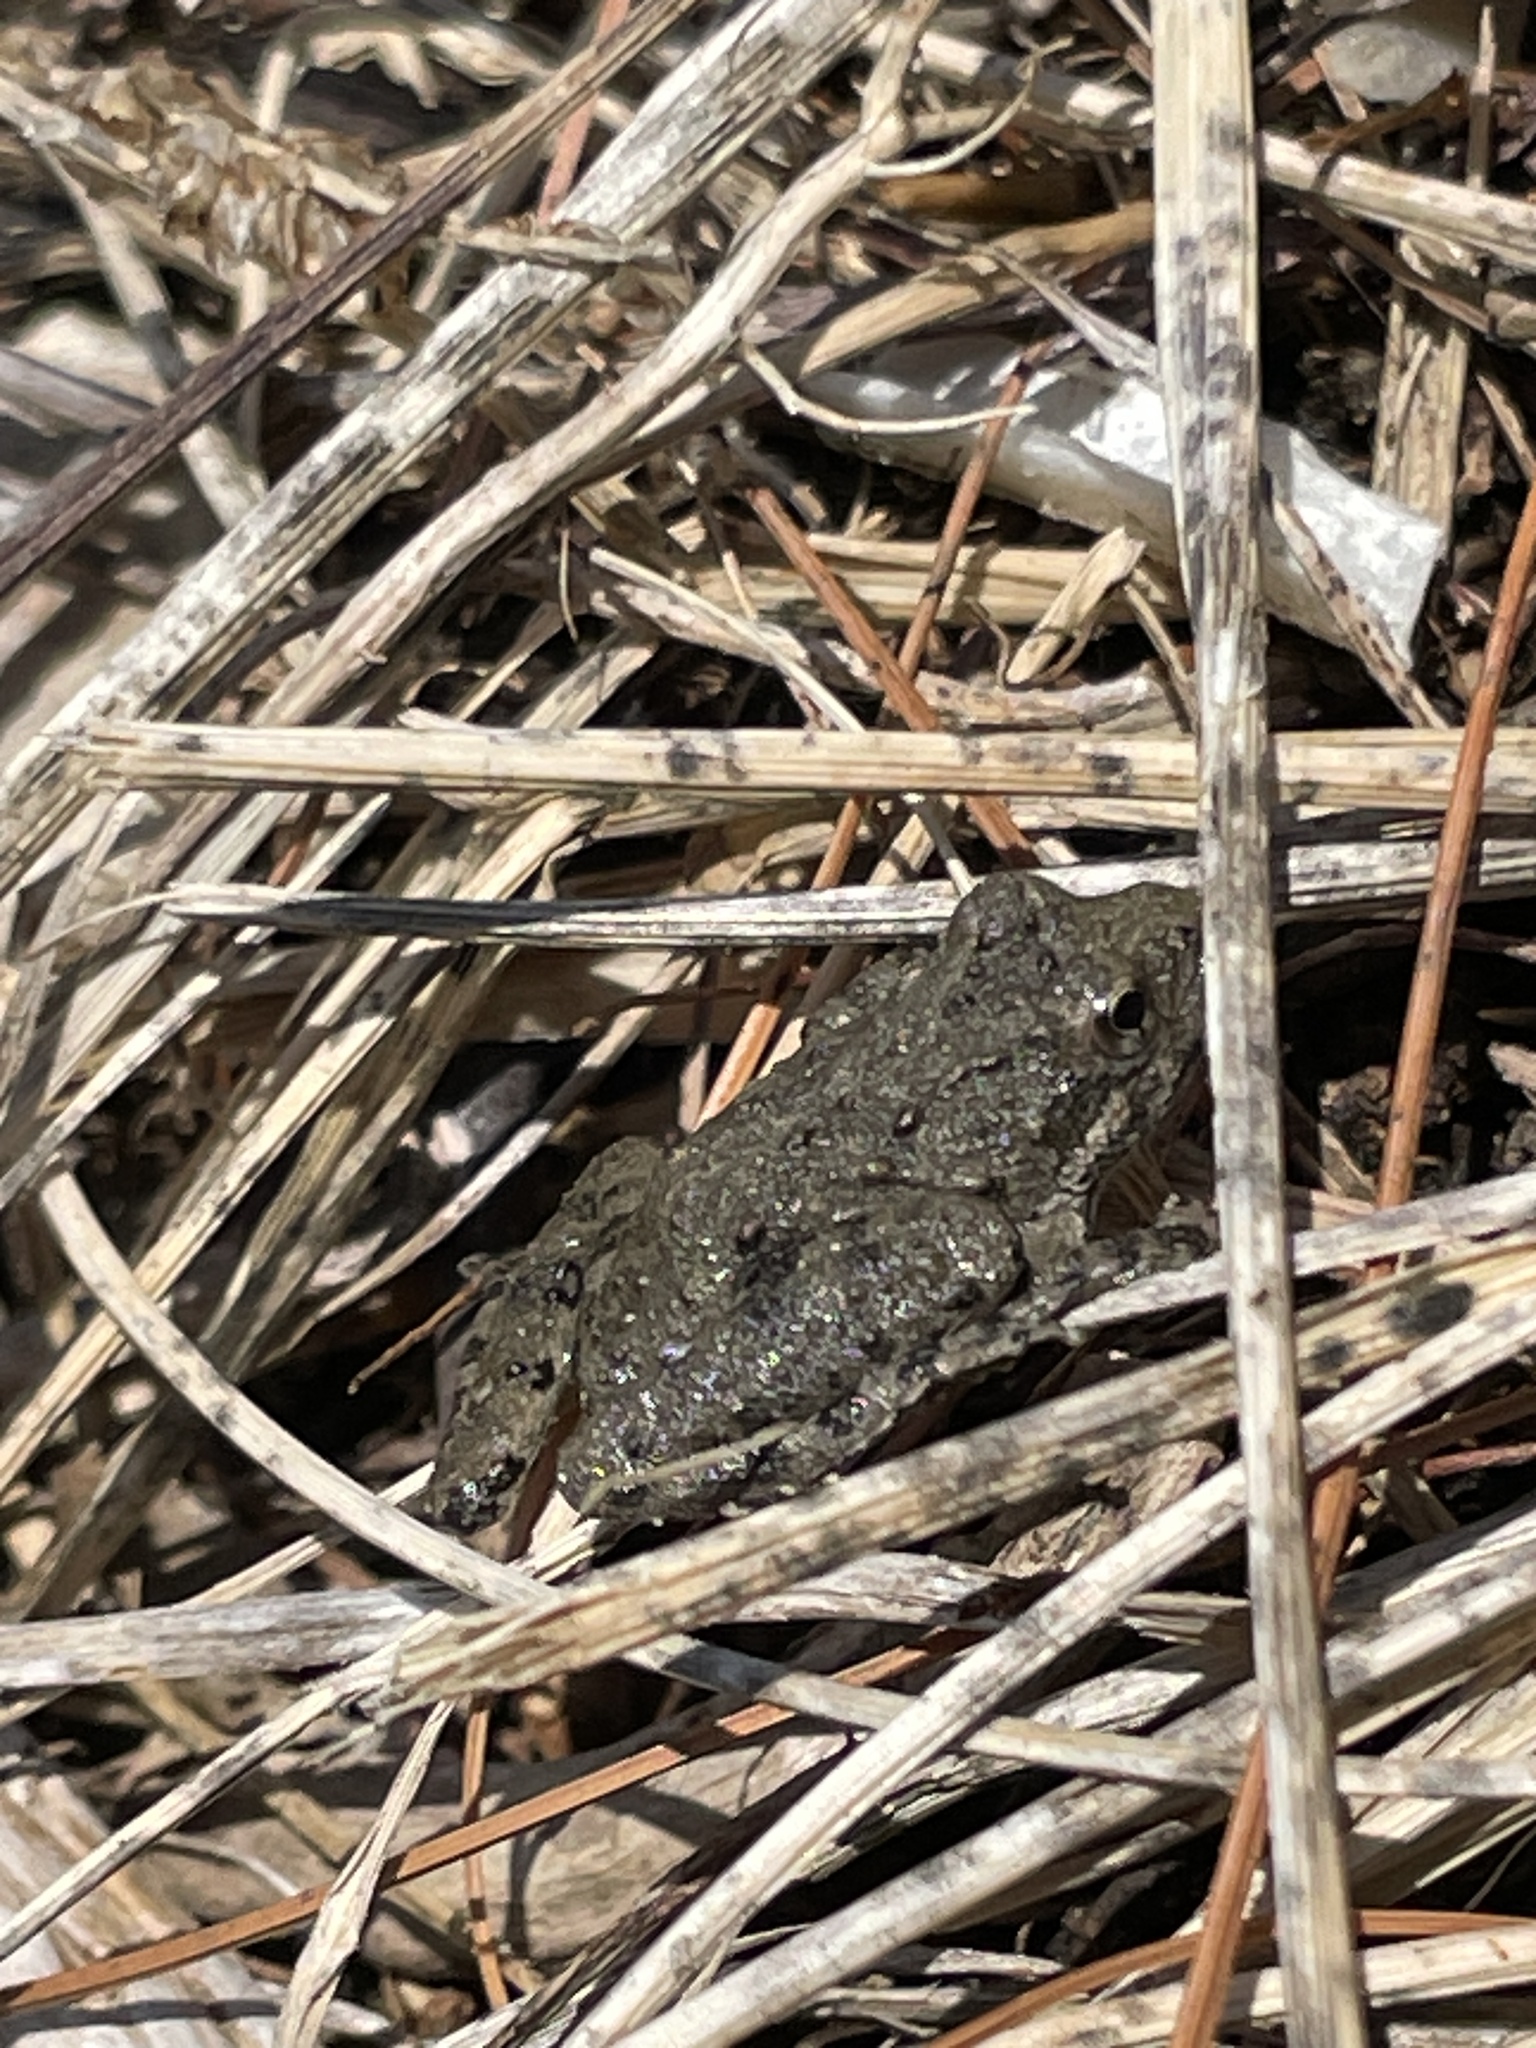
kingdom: Animalia
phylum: Chordata
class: Amphibia
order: Anura
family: Hylidae
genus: Acris
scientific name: Acris blanchardi
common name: Blanchard's cricket frog
